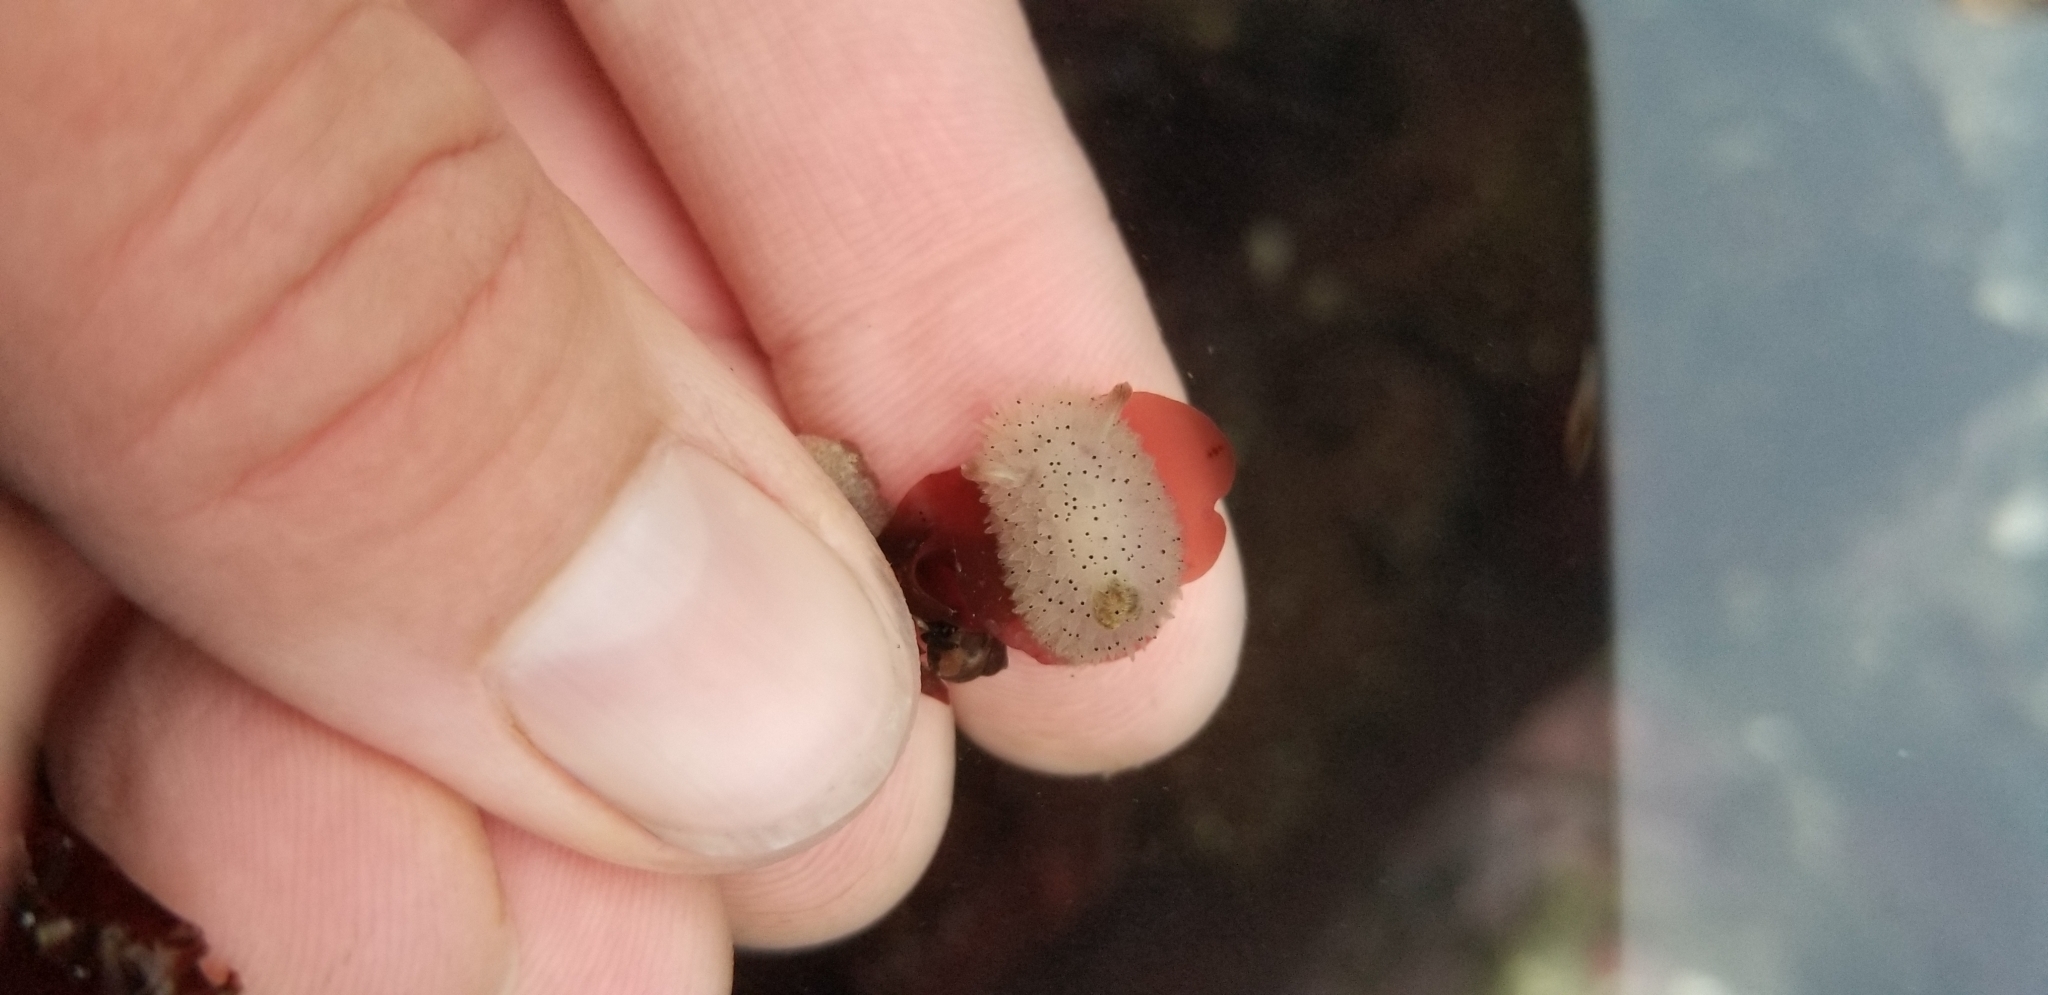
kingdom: Animalia
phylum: Mollusca
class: Gastropoda
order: Nudibranchia
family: Onchidorididae
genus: Acanthodoris
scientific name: Acanthodoris rhodoceras
